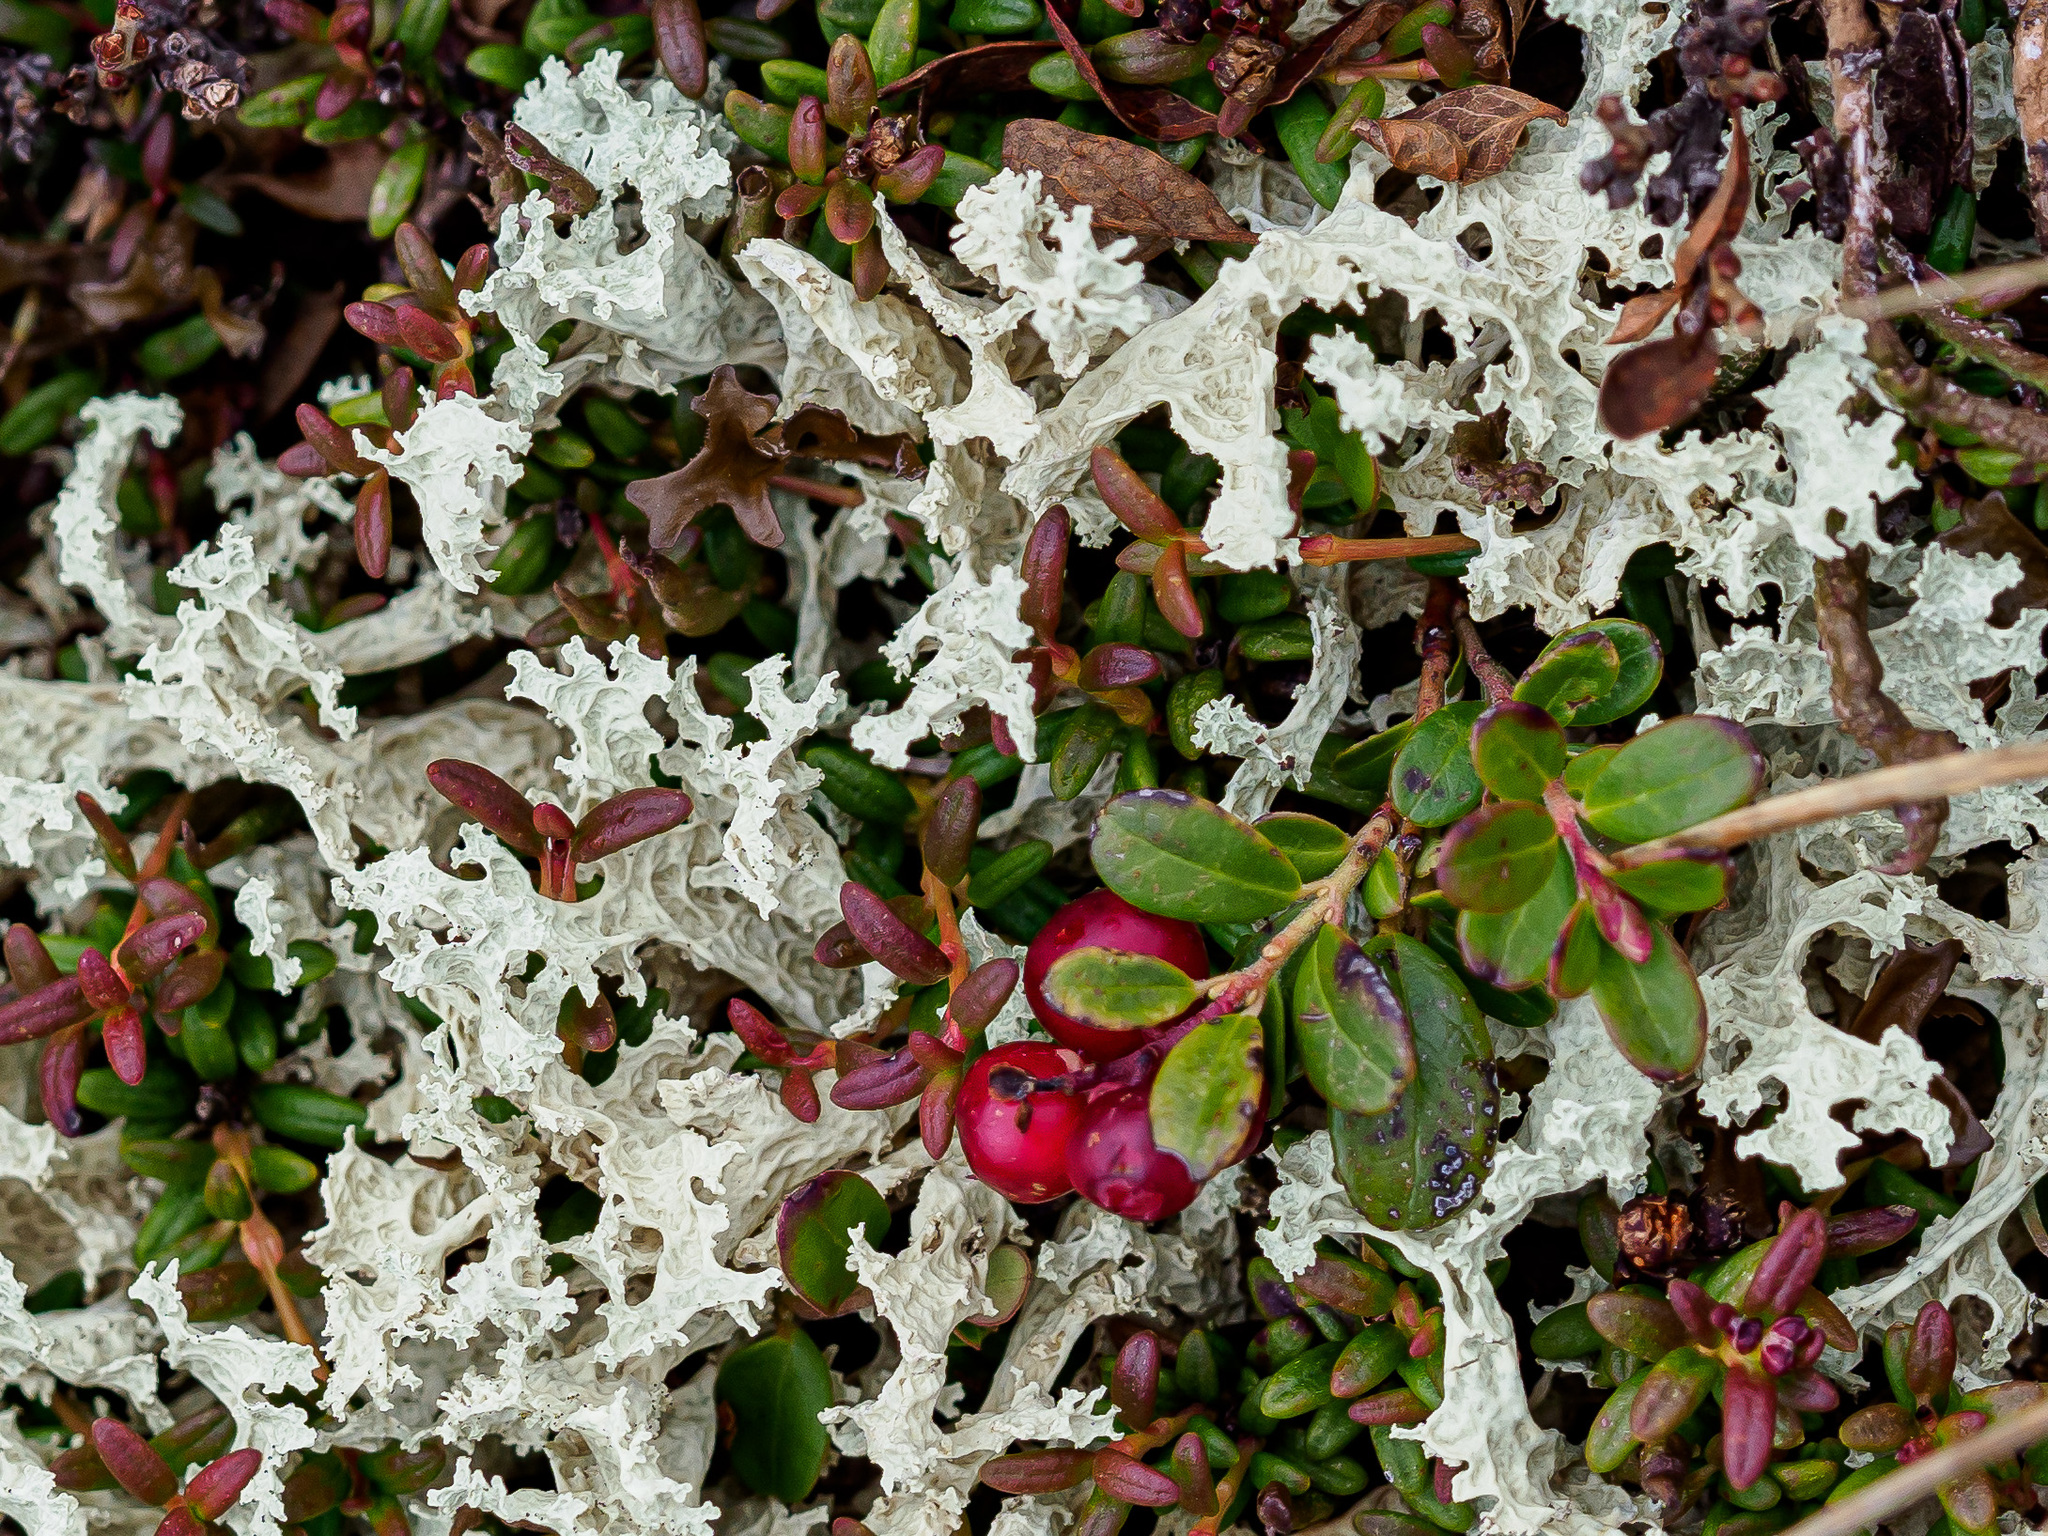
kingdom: Fungi
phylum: Ascomycota
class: Lecanoromycetes
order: Lecanorales
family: Parmeliaceae
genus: Nephromopsis
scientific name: Nephromopsis nivalis
